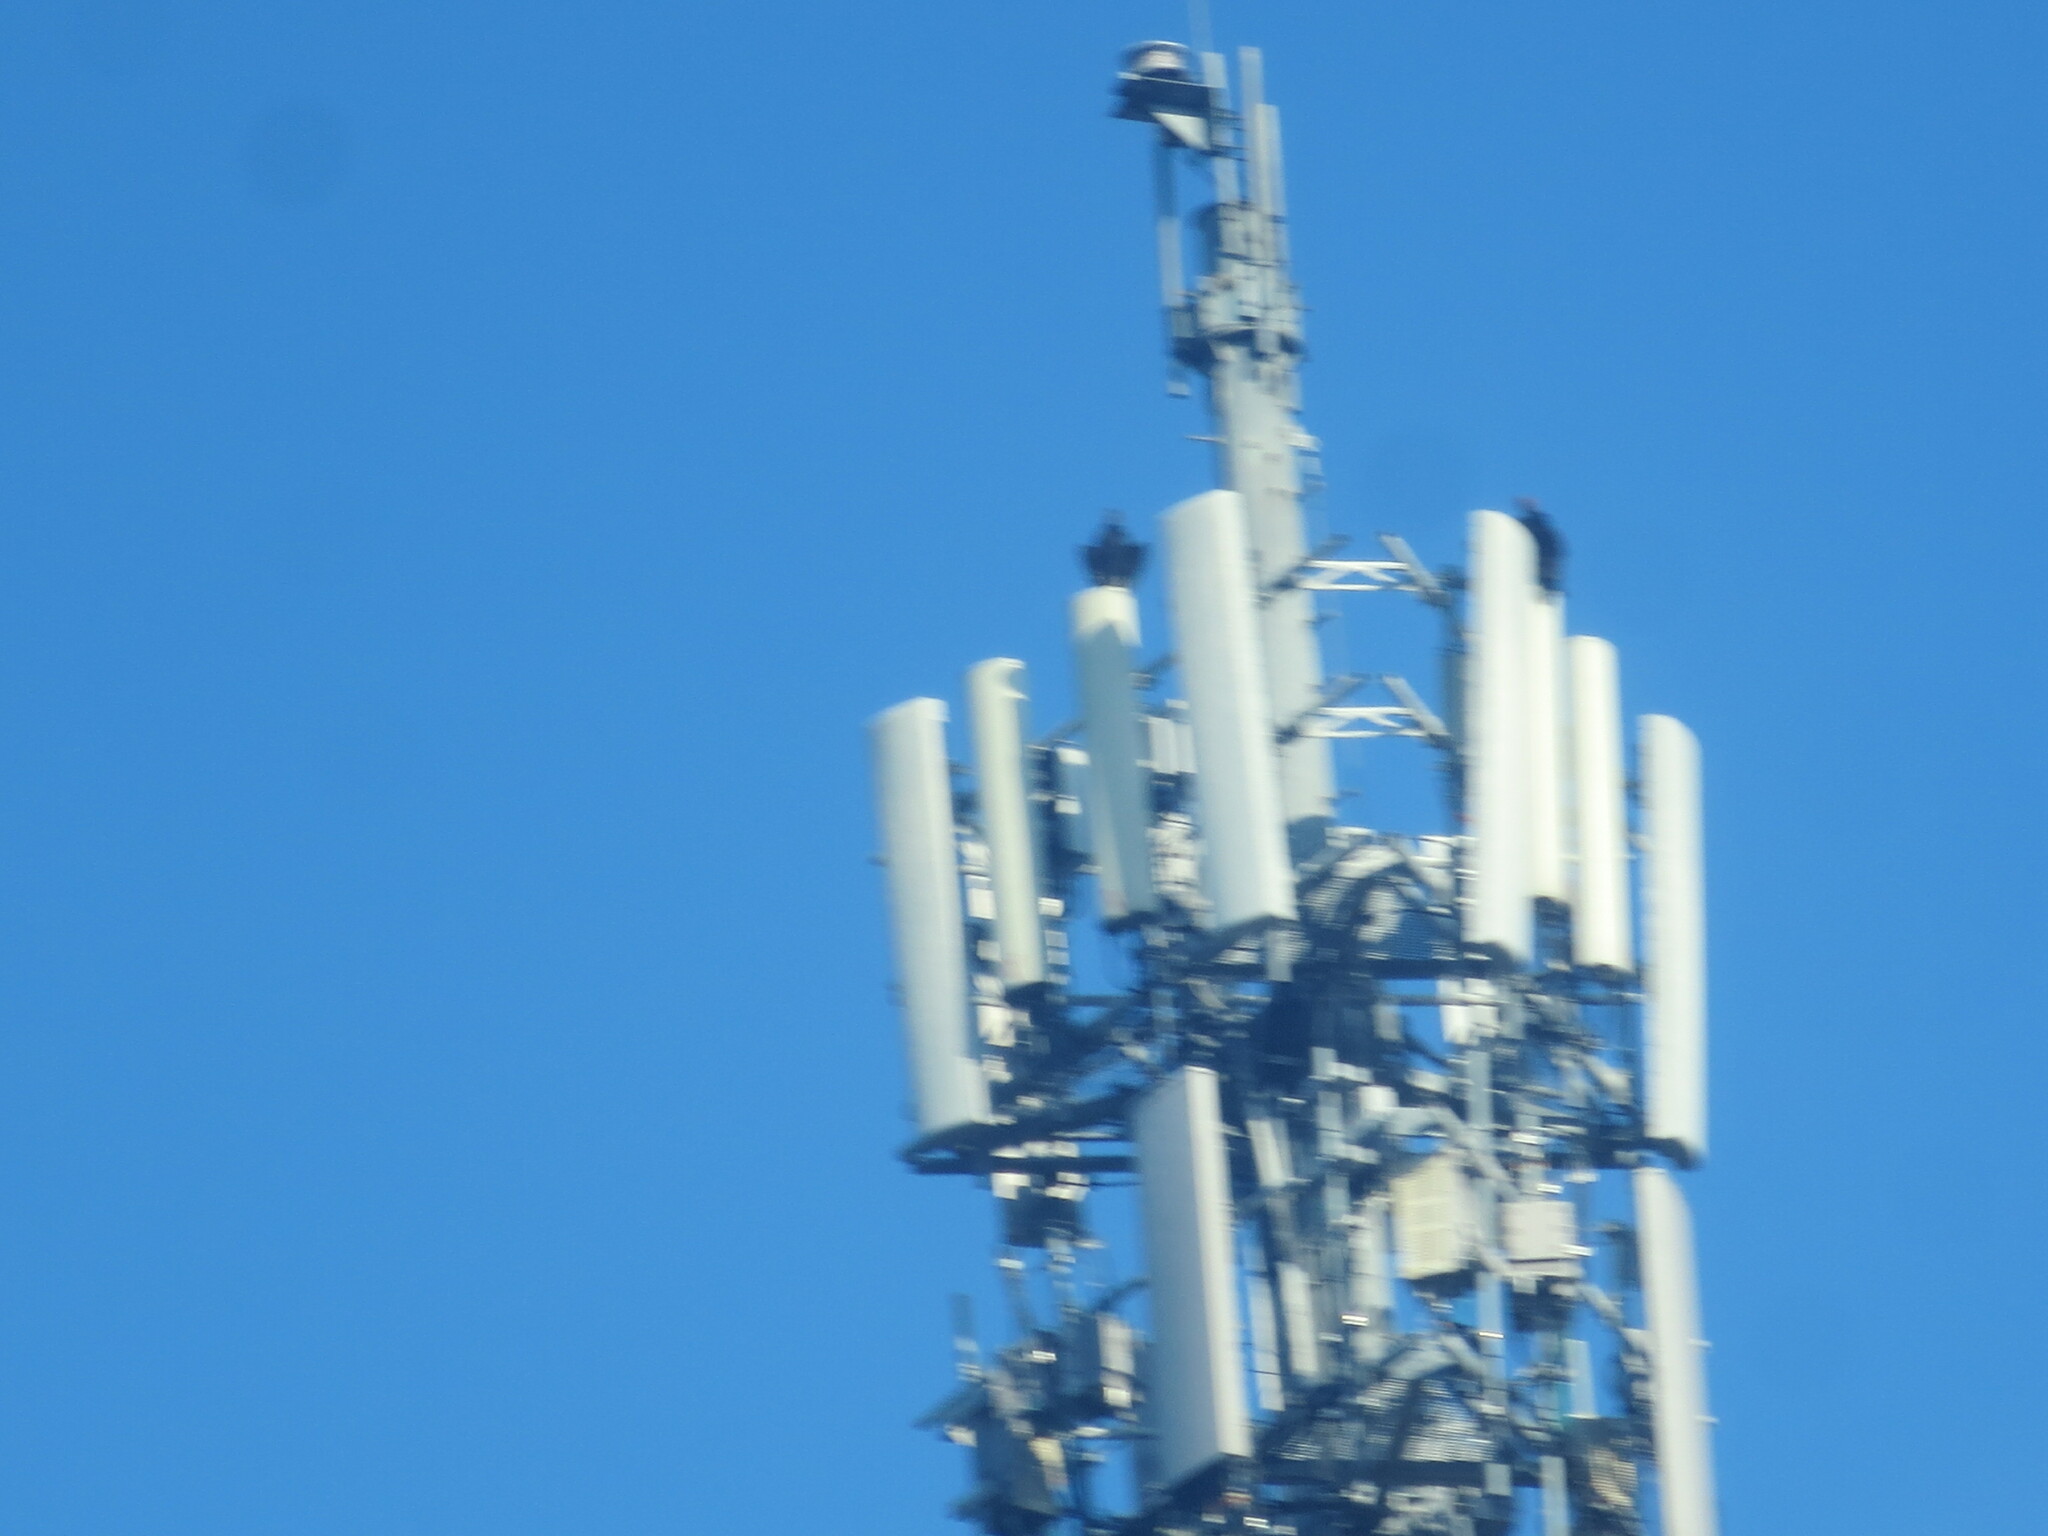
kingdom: Animalia
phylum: Chordata
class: Aves
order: Accipitriformes
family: Cathartidae
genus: Coragyps
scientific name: Coragyps atratus
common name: Black vulture
